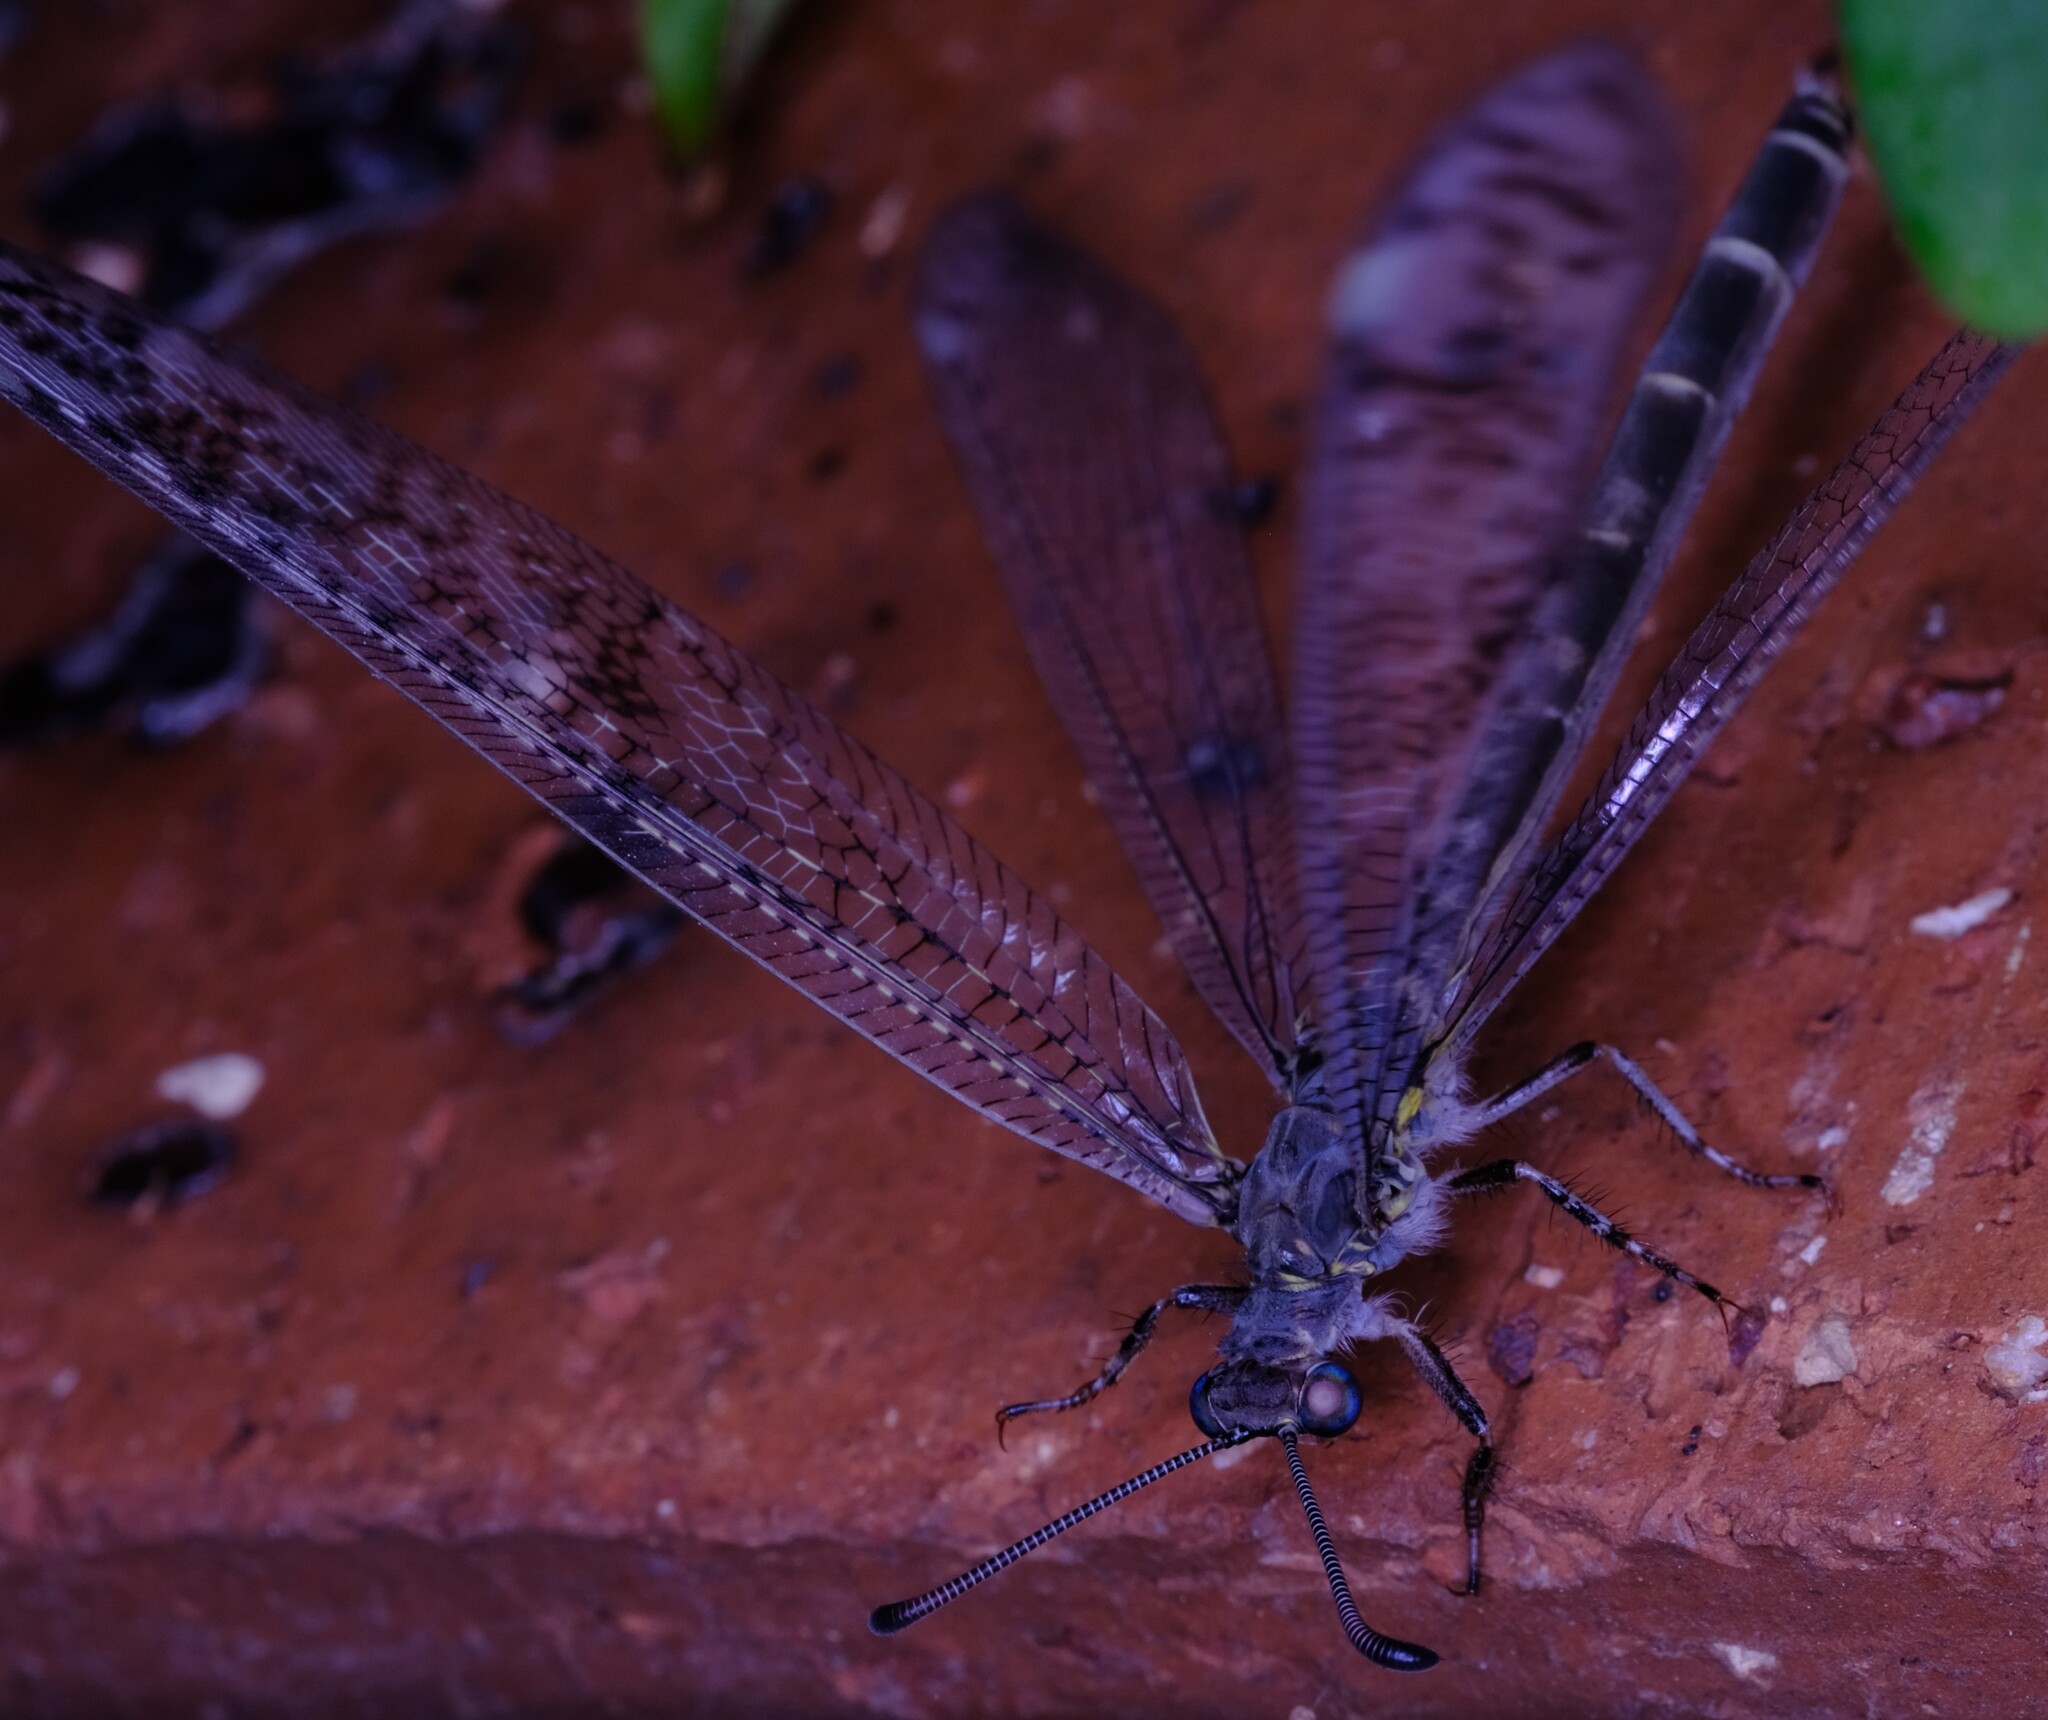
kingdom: Animalia
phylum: Arthropoda
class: Insecta
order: Neuroptera
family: Myrmeleontidae
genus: Escura
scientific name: Escura australis
